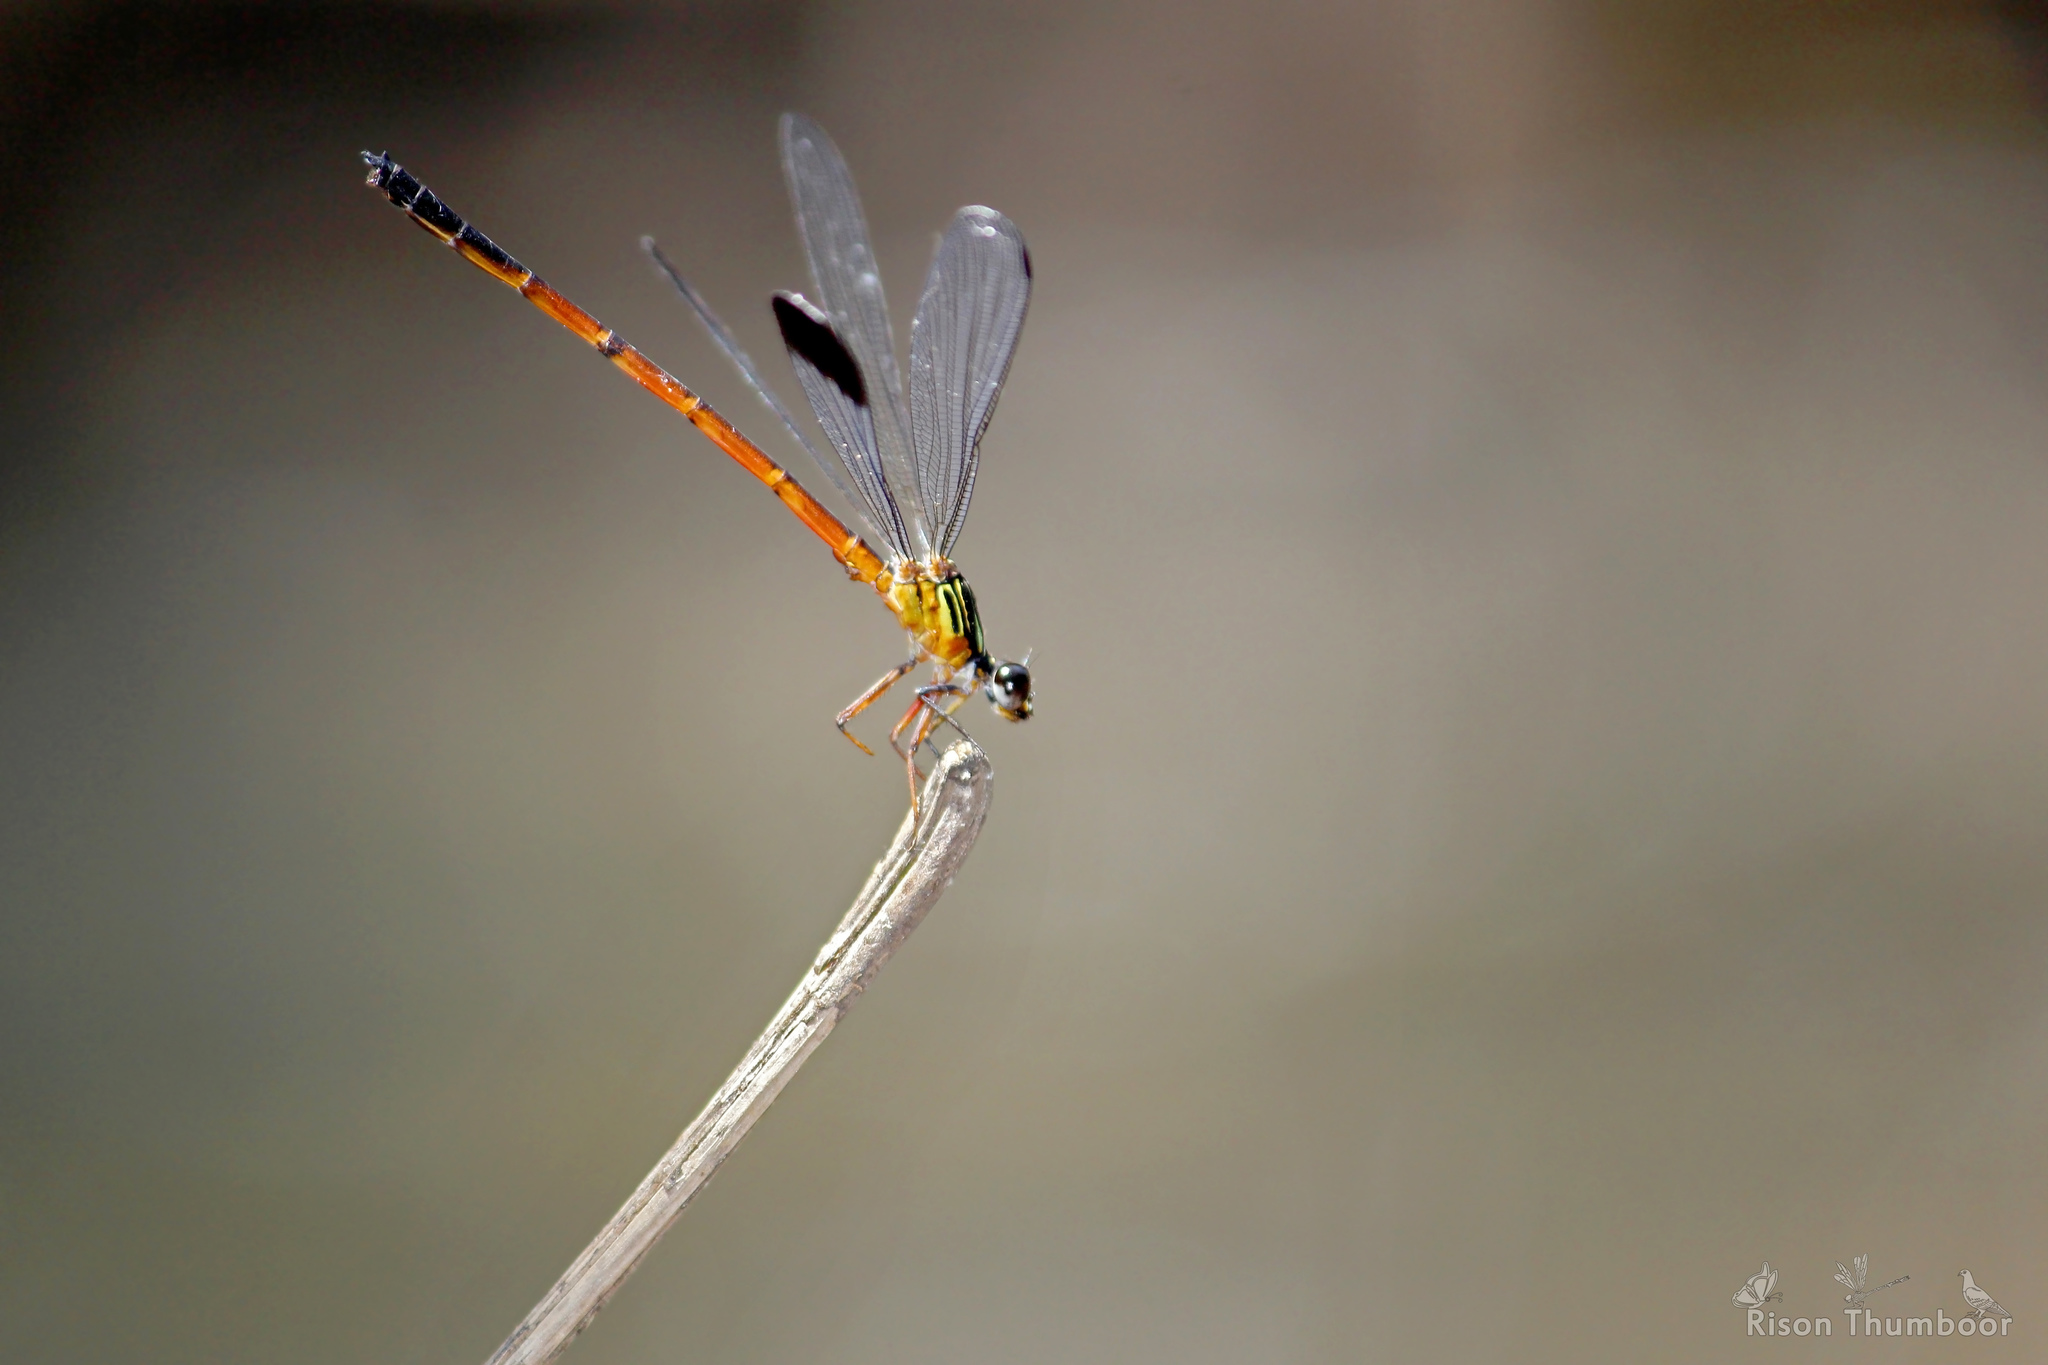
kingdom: Animalia
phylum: Arthropoda
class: Insecta
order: Odonata
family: Euphaeidae
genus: Euphaea
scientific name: Euphaea fraseri
